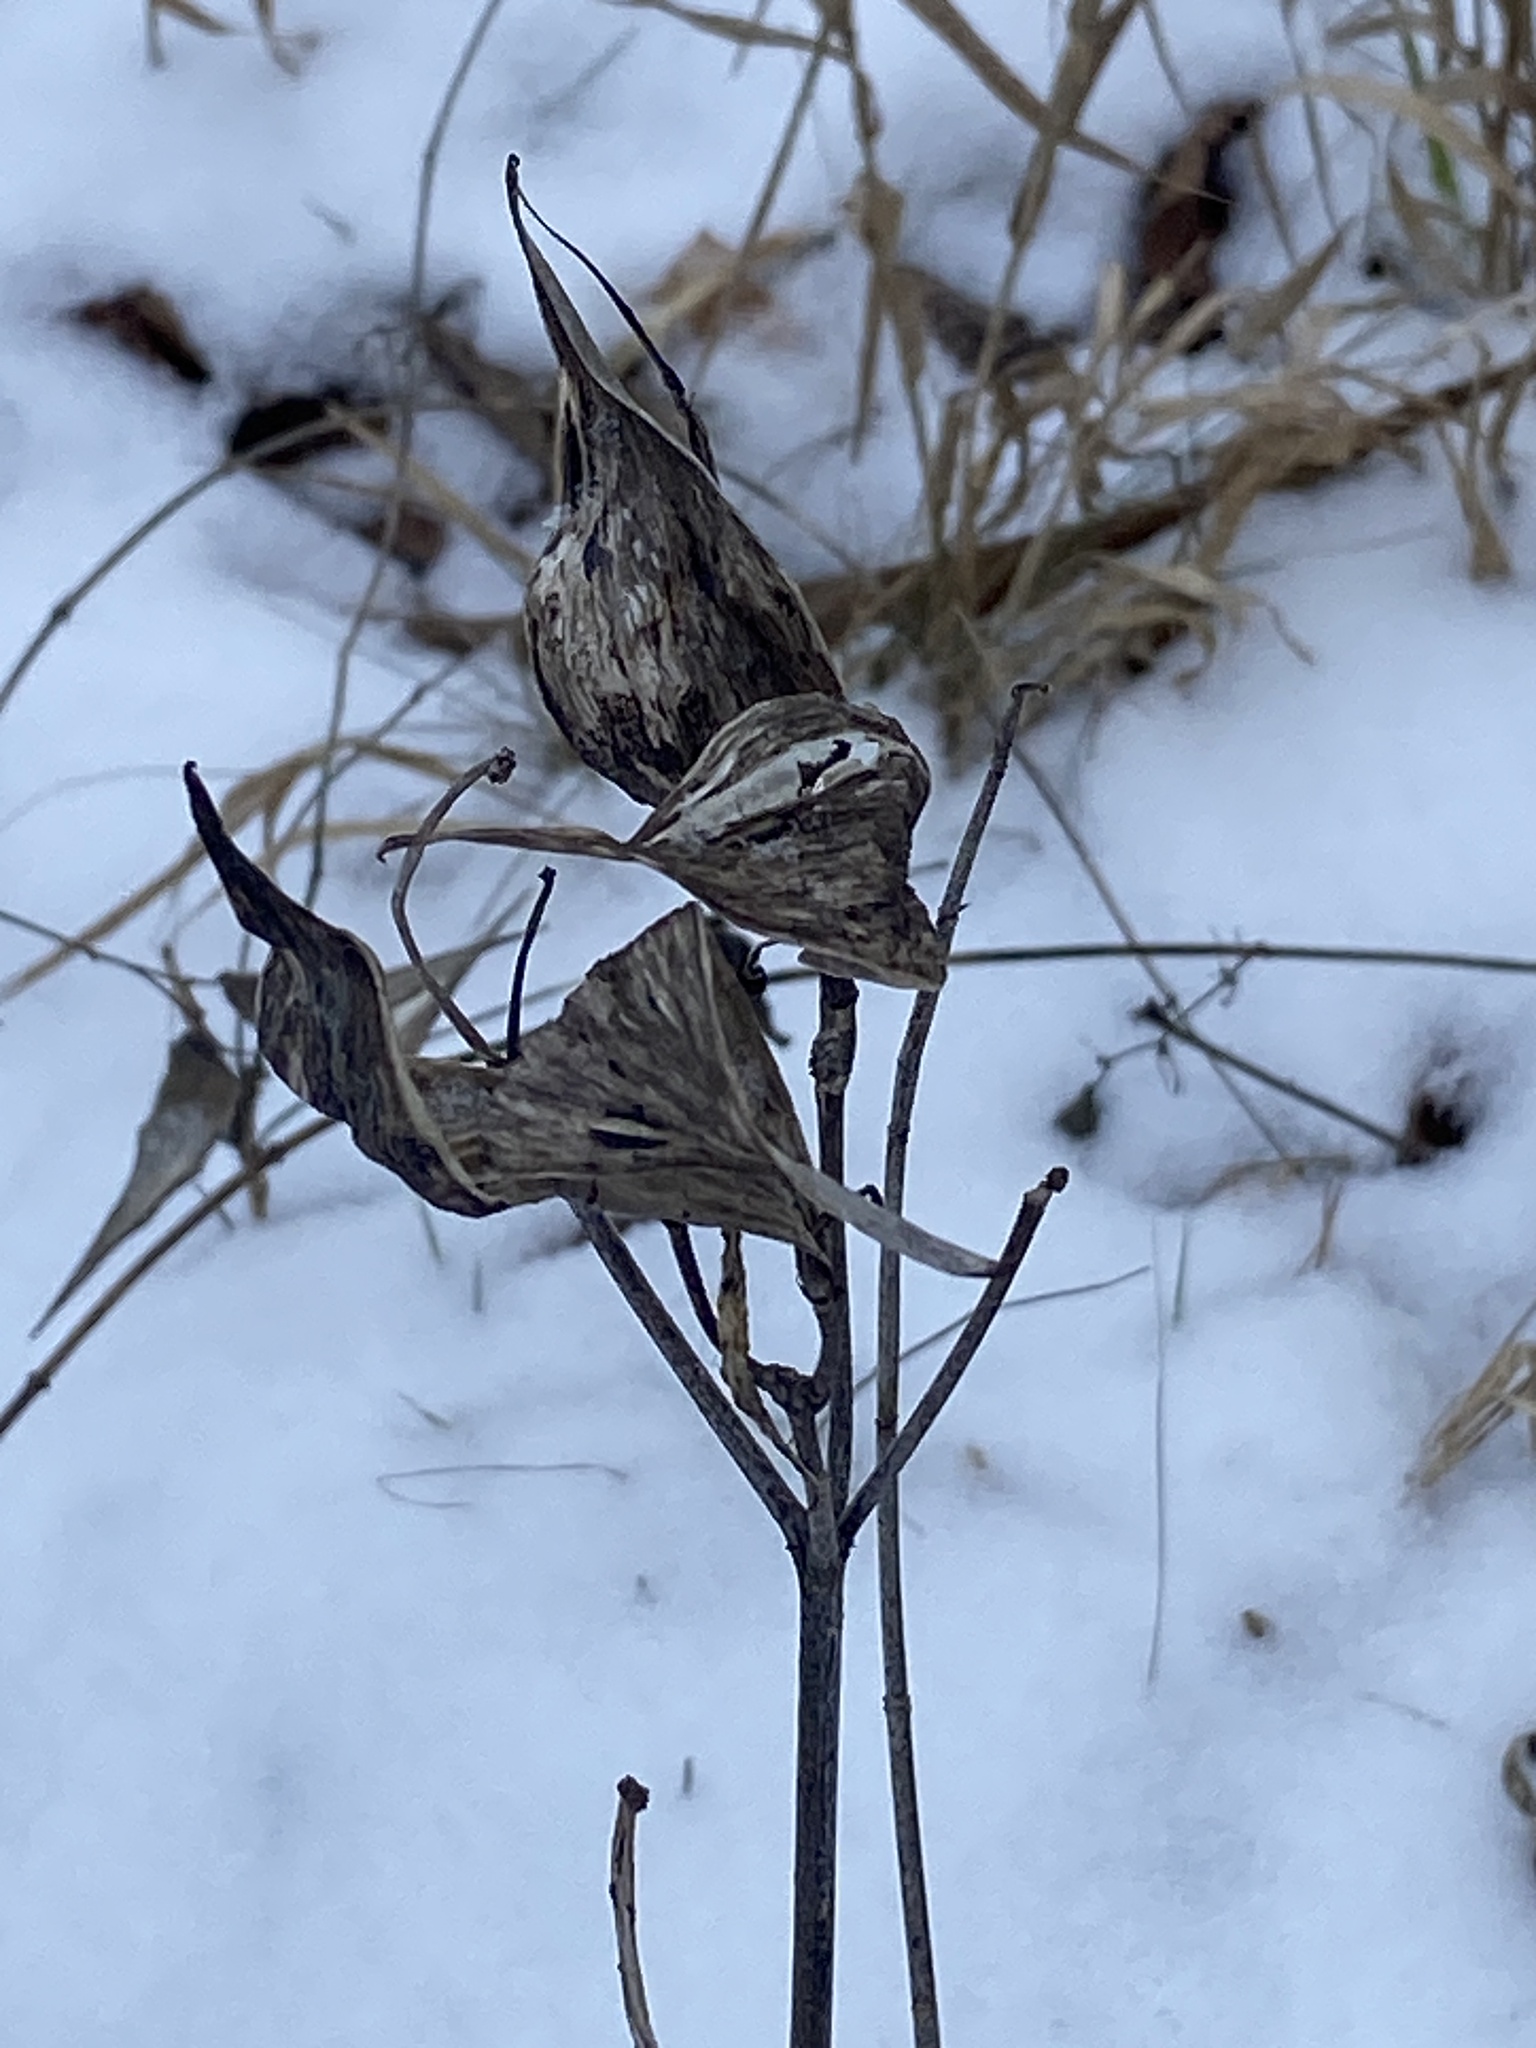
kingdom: Plantae
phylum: Tracheophyta
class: Magnoliopsida
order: Gentianales
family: Apocynaceae
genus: Asclepias
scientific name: Asclepias incarnata
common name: Swamp milkweed
